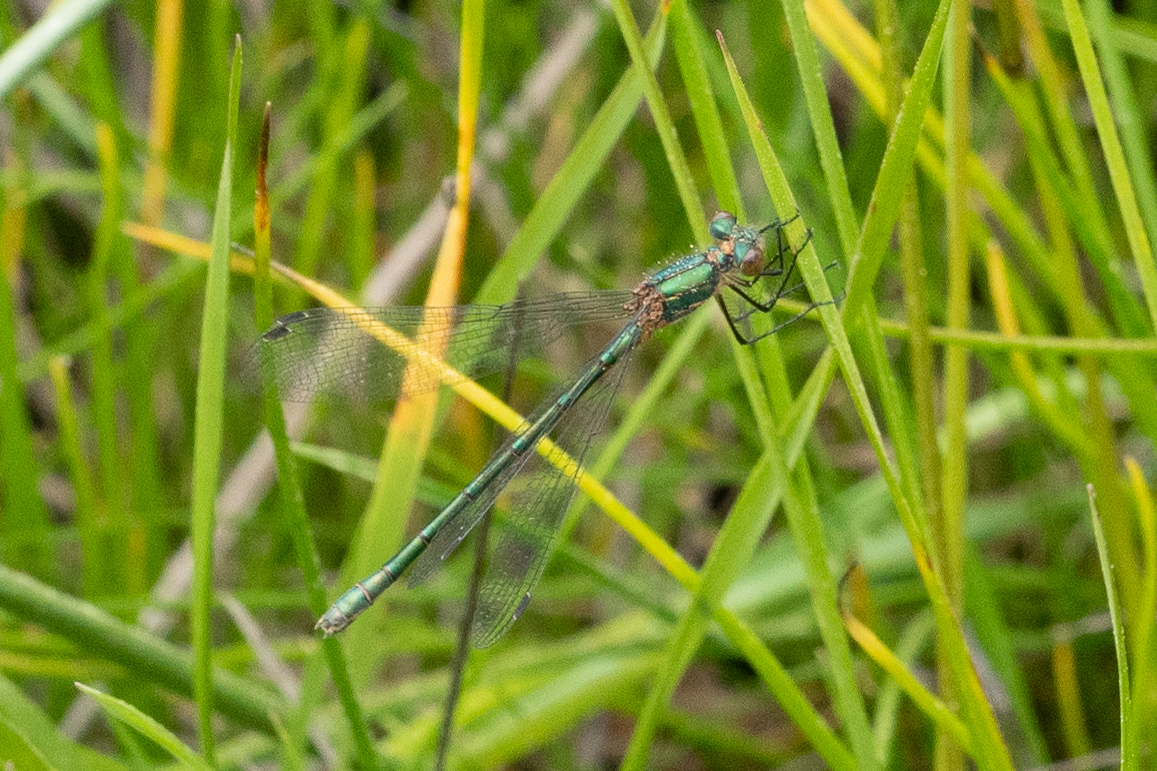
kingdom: Animalia
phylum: Arthropoda
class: Insecta
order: Odonata
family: Lestidae
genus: Lestes
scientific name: Lestes dryas
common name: Scarce emerald damselfly
